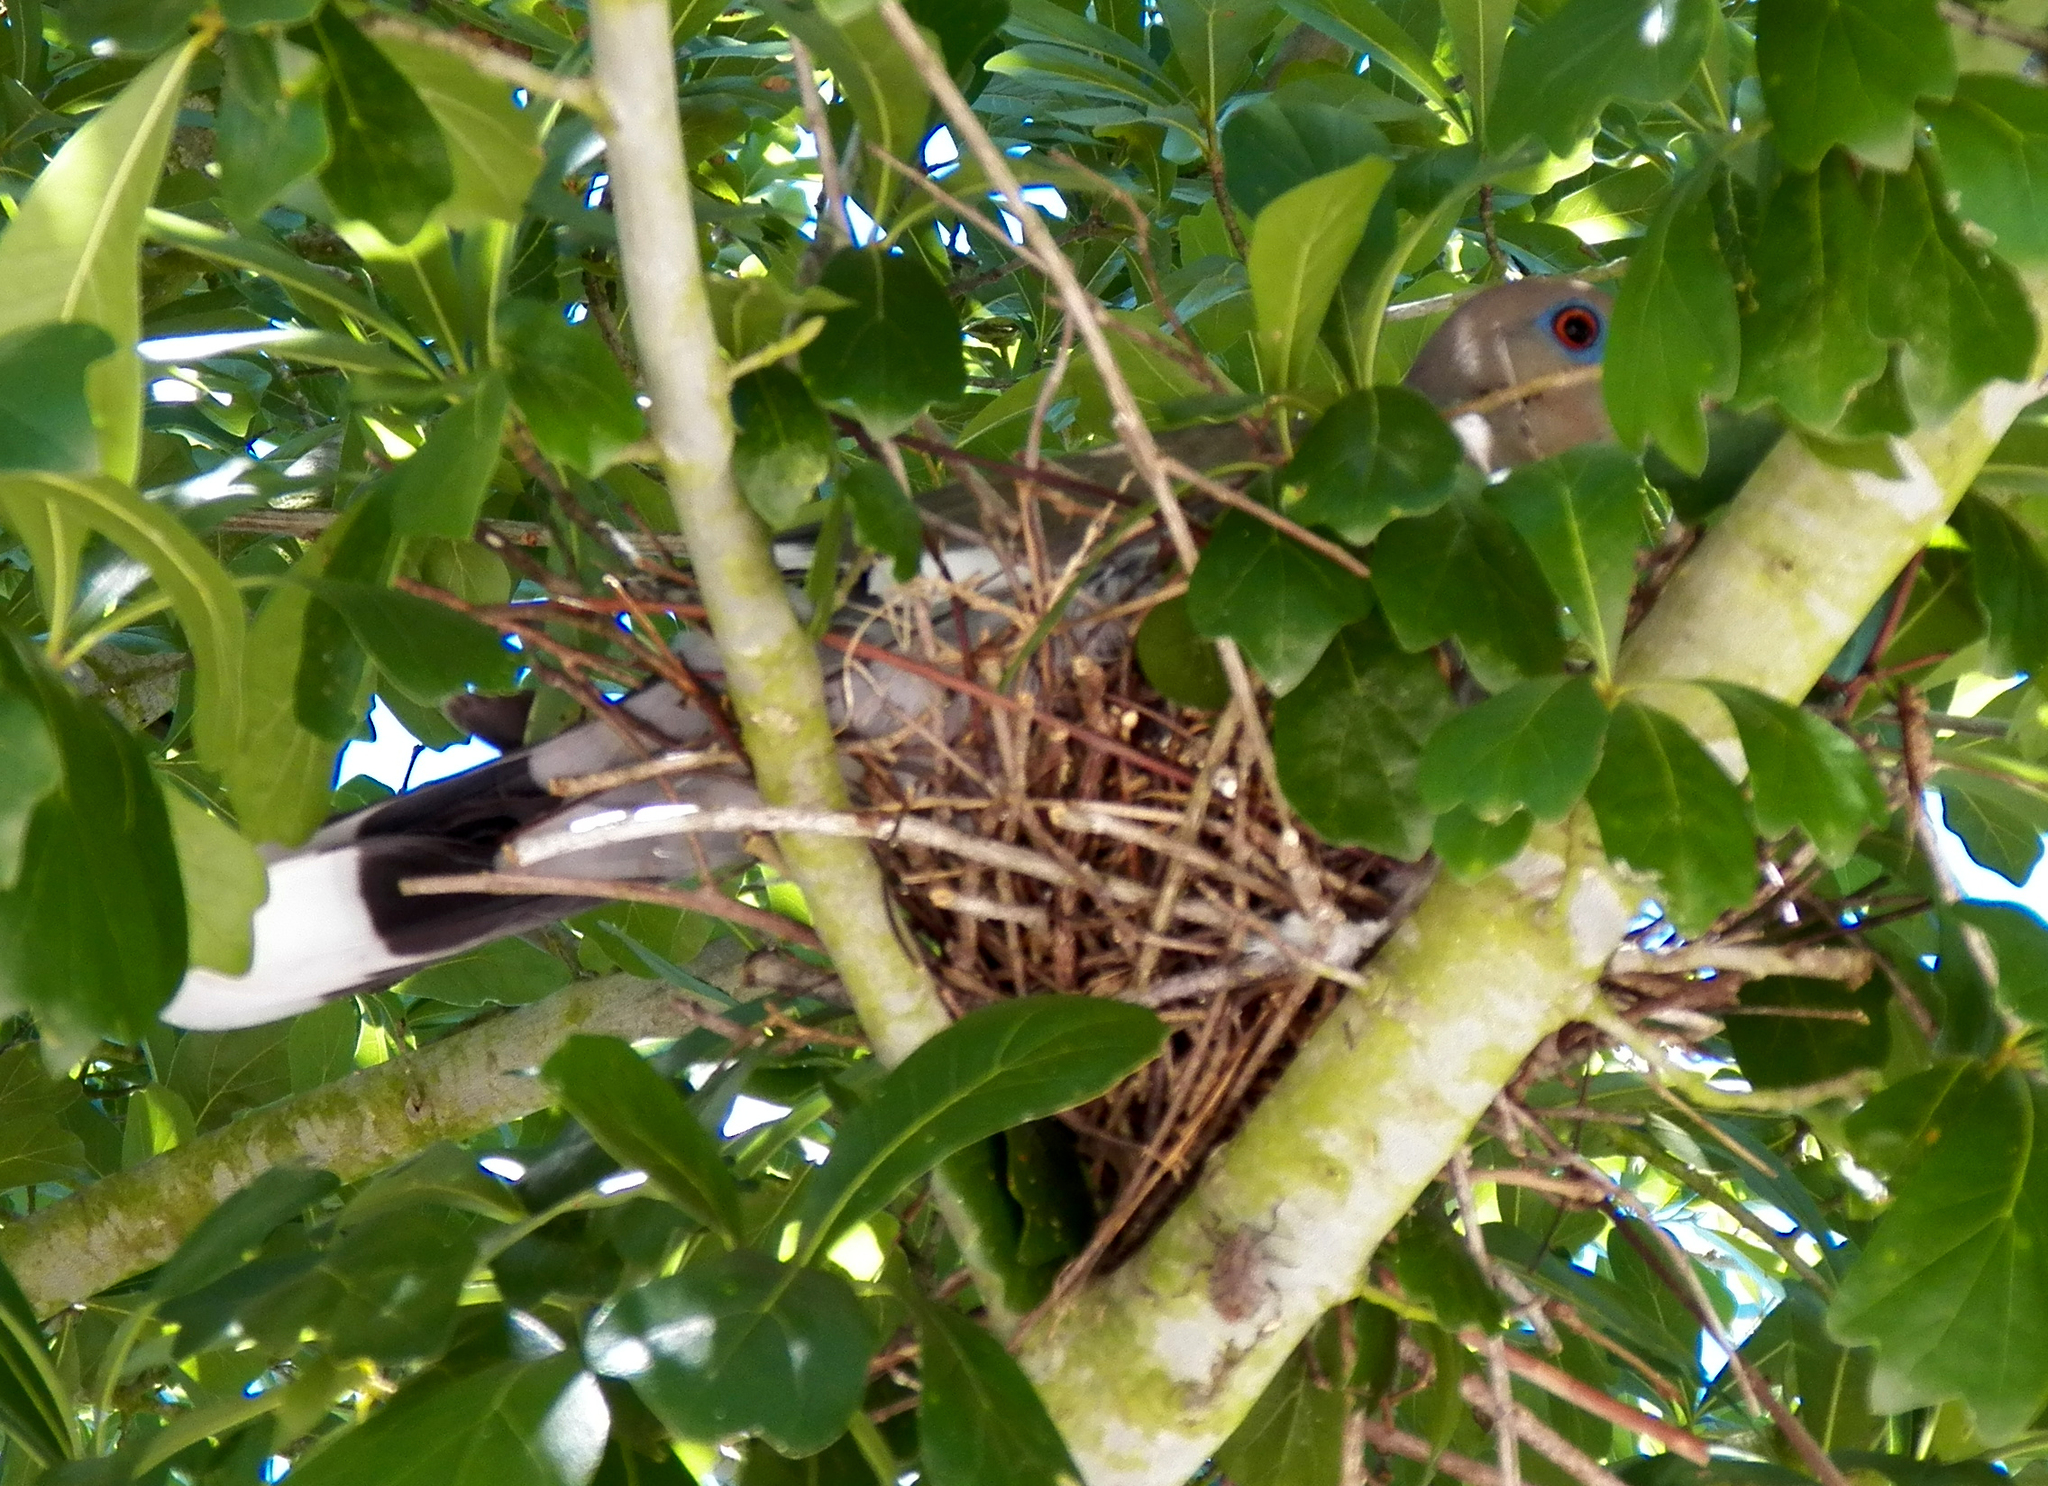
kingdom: Animalia
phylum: Chordata
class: Aves
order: Columbiformes
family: Columbidae
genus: Zenaida
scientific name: Zenaida asiatica
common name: White-winged dove
